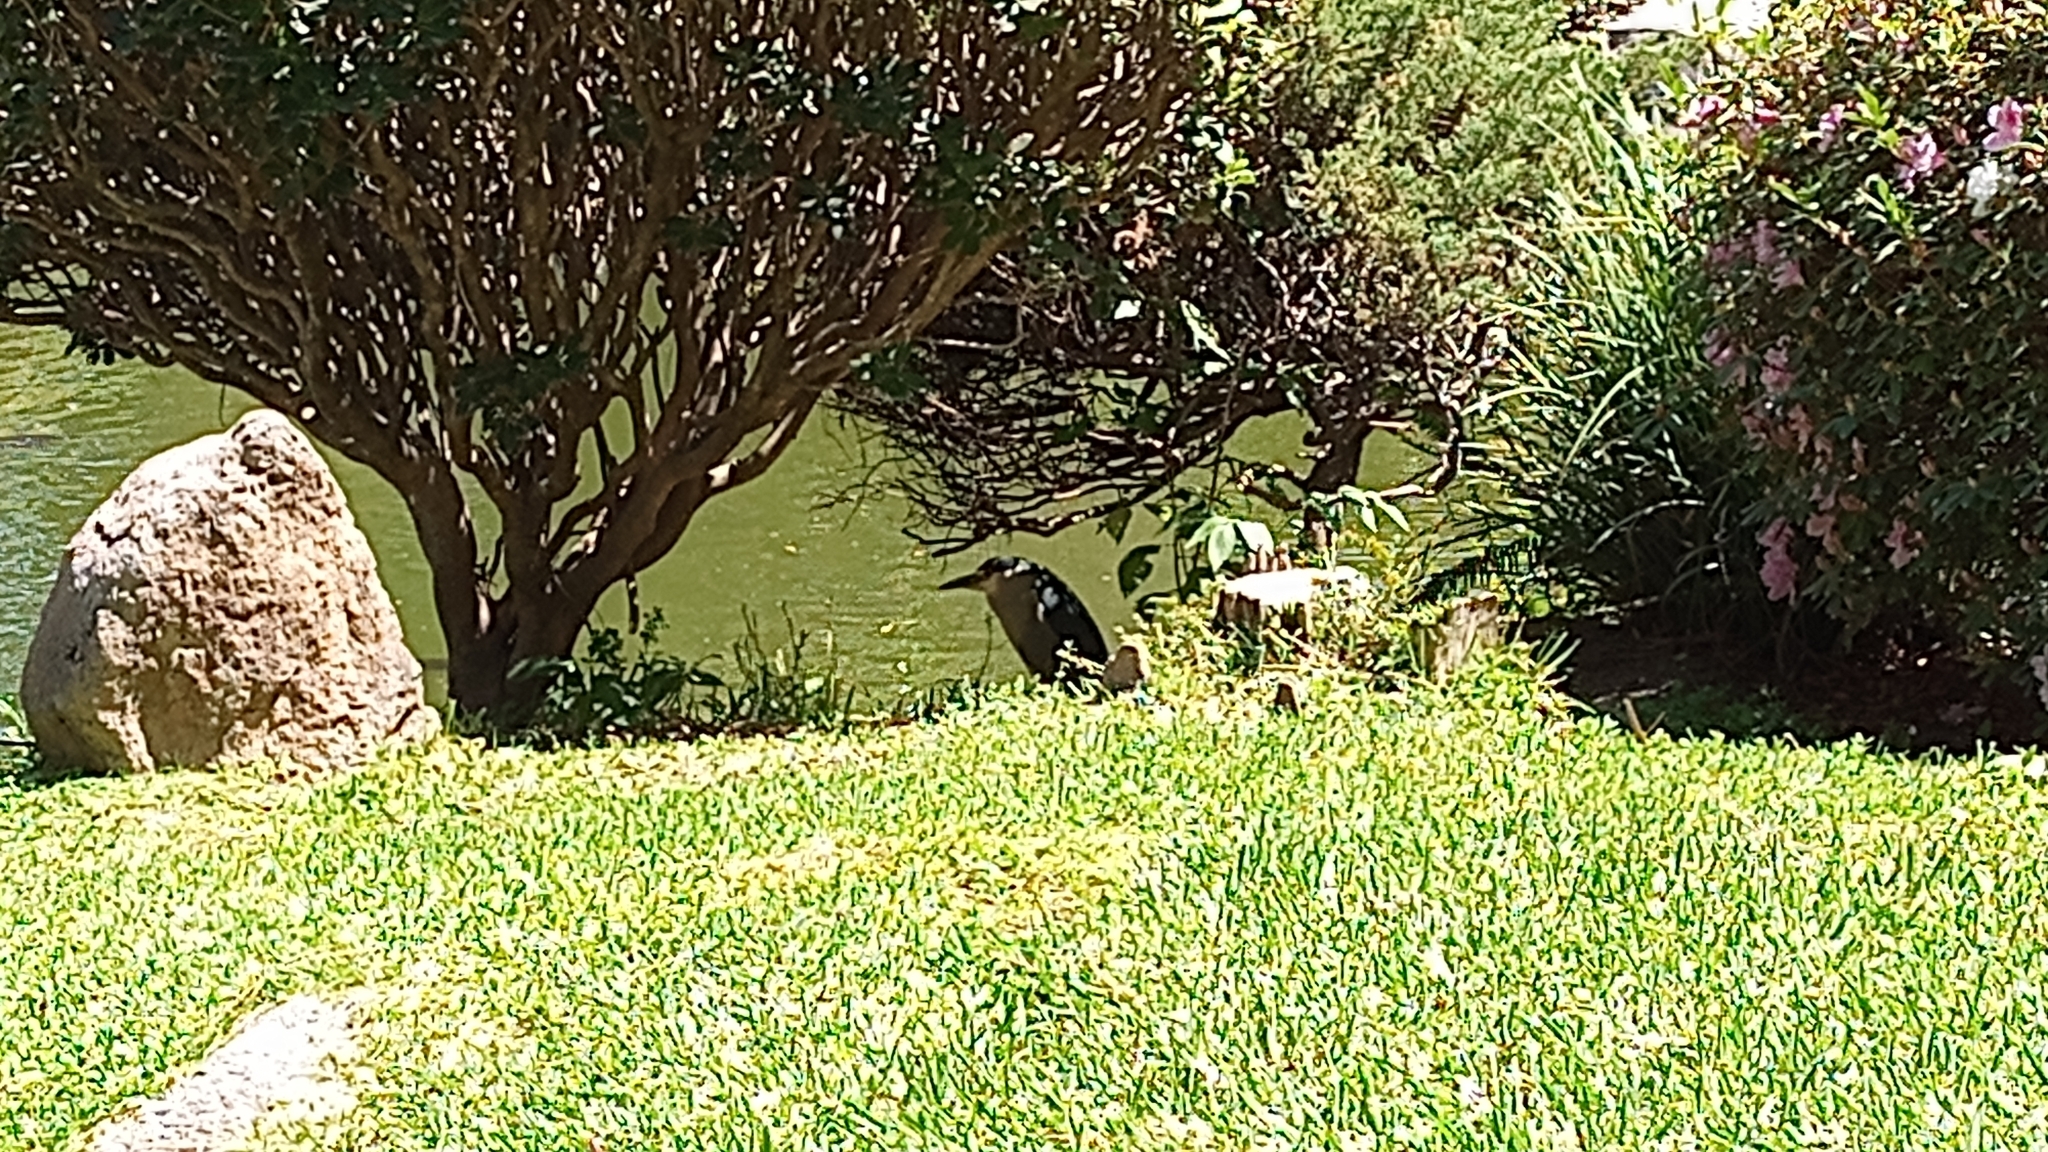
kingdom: Animalia
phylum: Chordata
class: Aves
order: Pelecaniformes
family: Ardeidae
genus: Nycticorax
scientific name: Nycticorax nycticorax
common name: Black-crowned night heron
